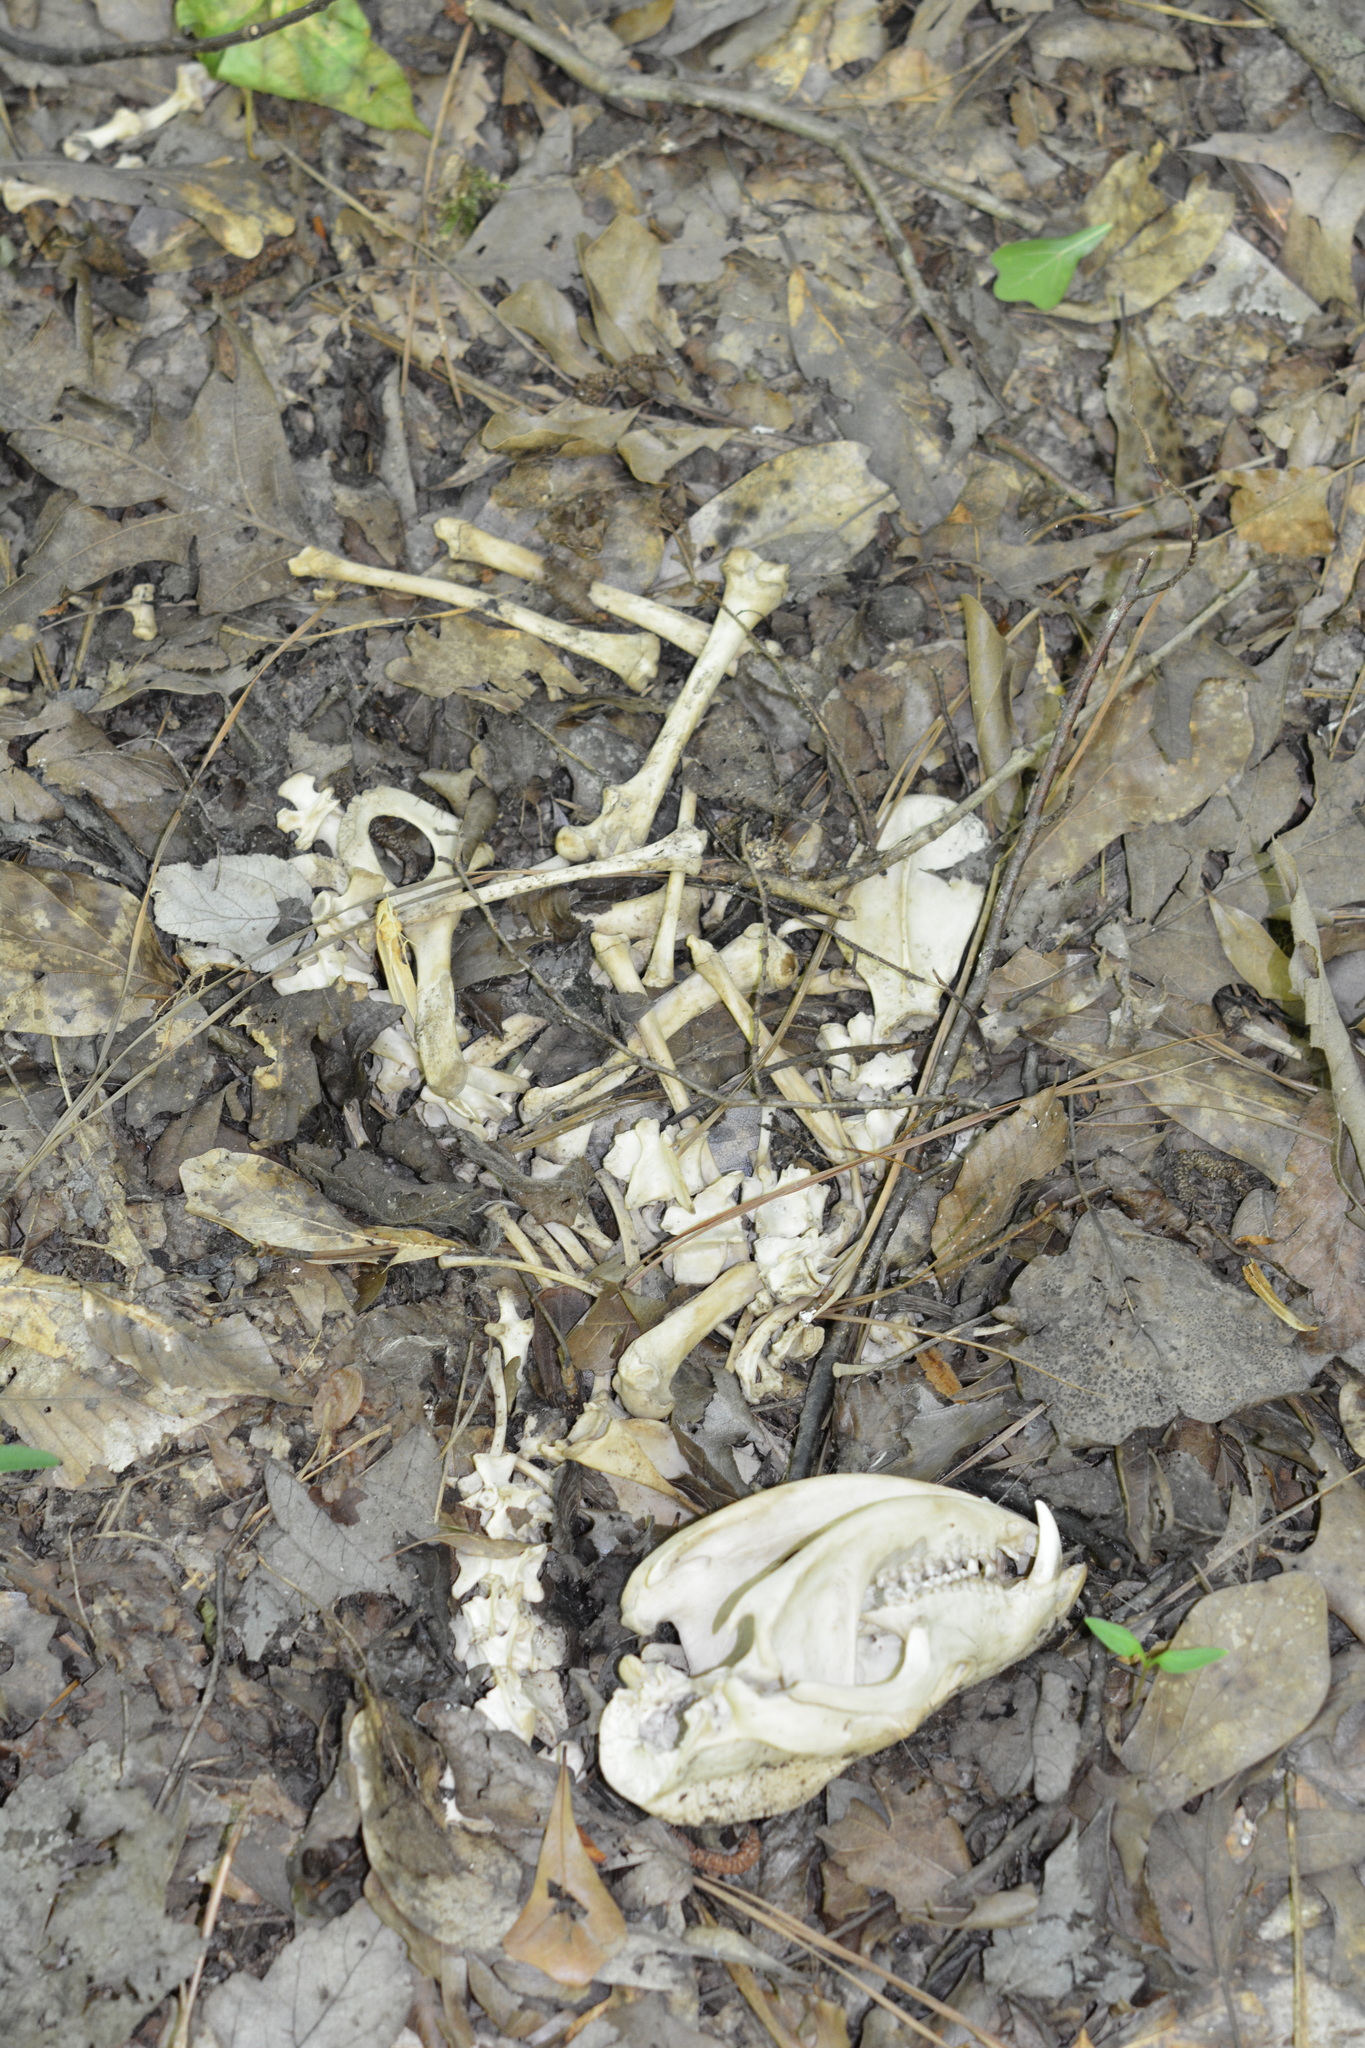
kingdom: Animalia
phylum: Chordata
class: Mammalia
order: Didelphimorphia
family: Didelphidae
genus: Didelphis
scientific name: Didelphis virginiana
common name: Virginia opossum
